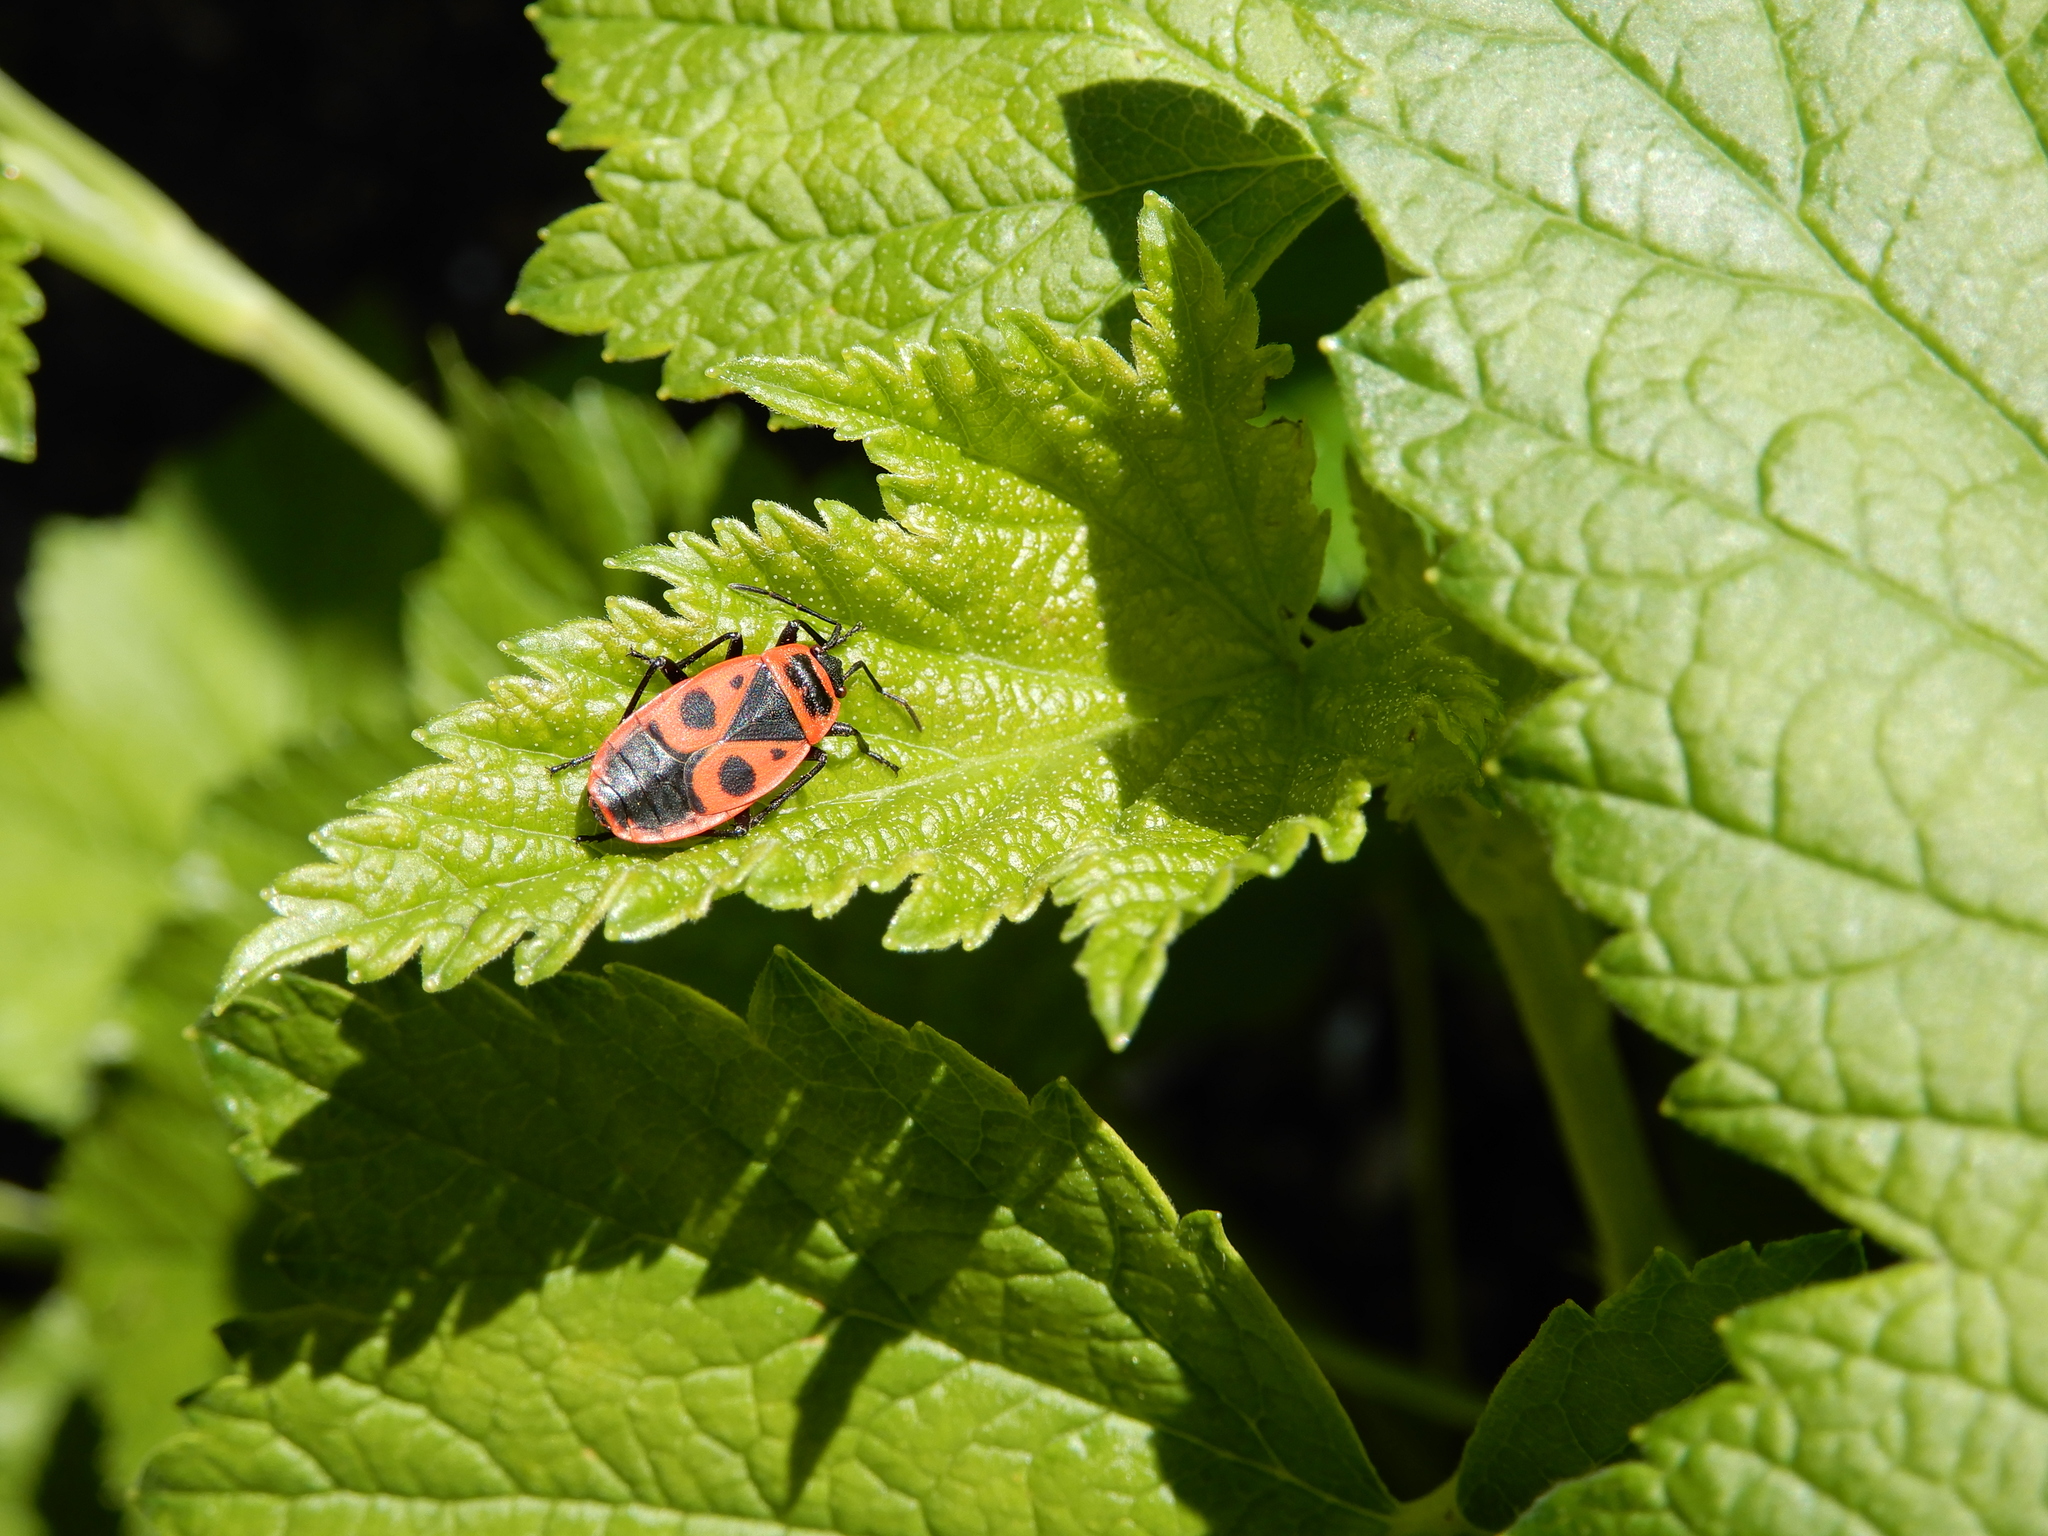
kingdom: Animalia
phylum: Arthropoda
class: Insecta
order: Hemiptera
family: Pyrrhocoridae
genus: Pyrrhocoris
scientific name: Pyrrhocoris apterus
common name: Firebug
